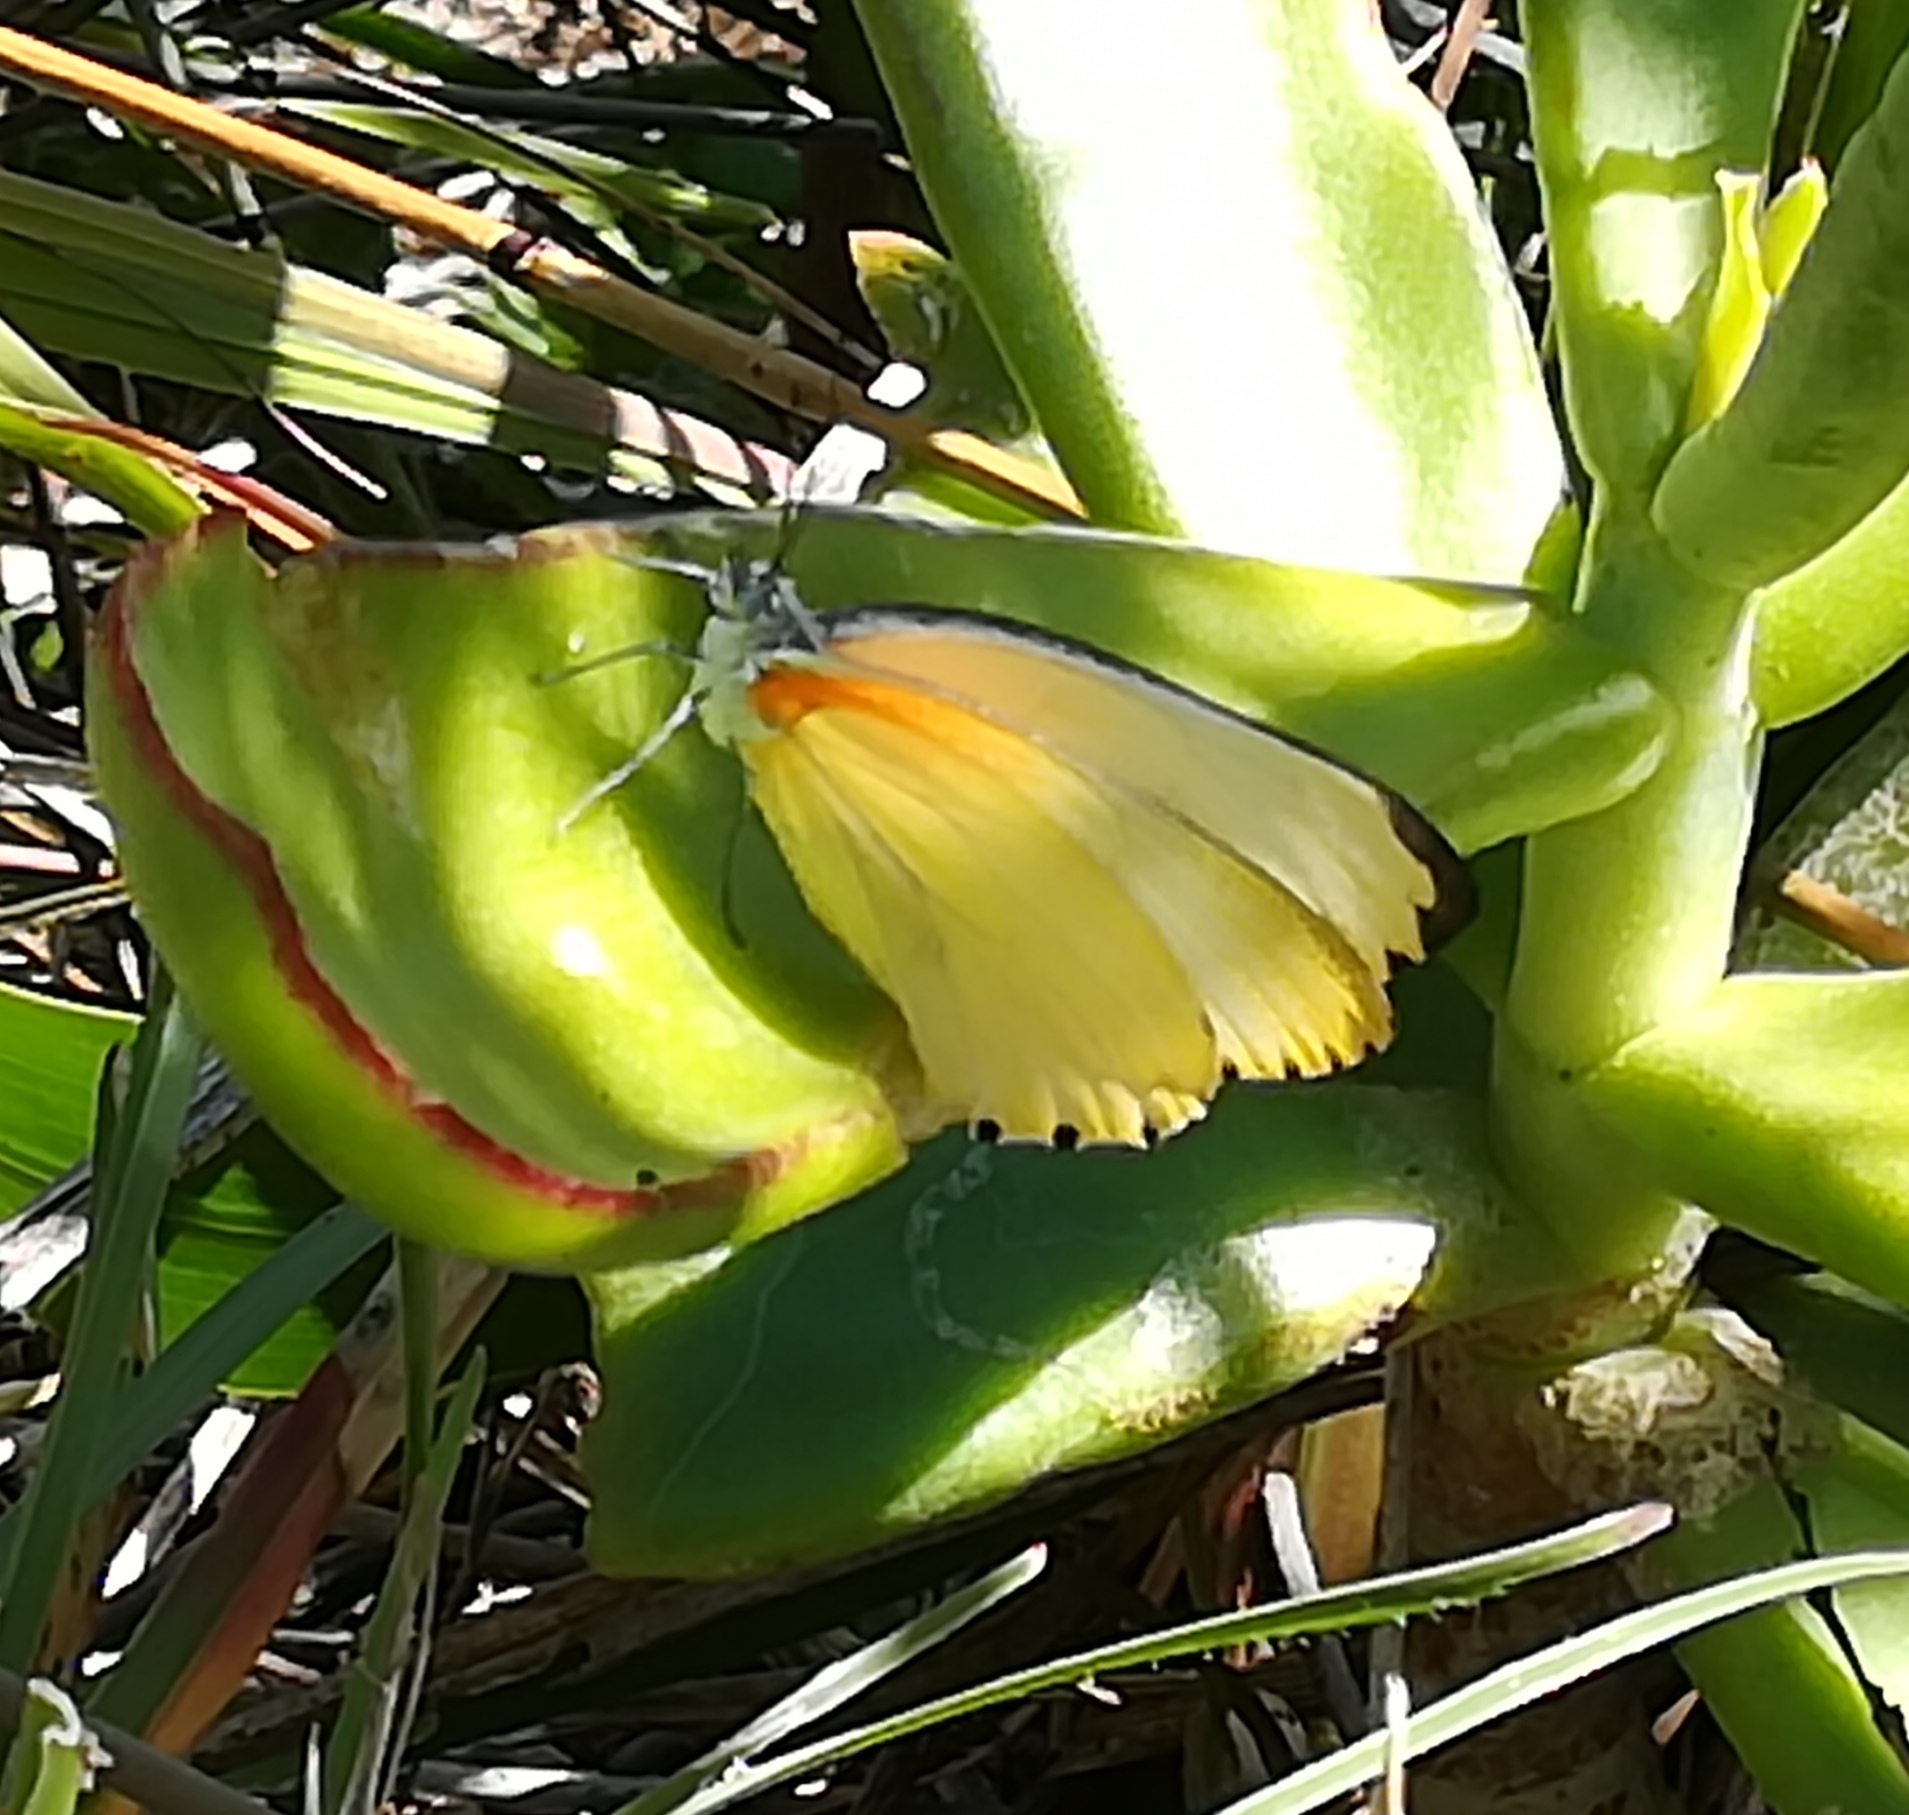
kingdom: Animalia
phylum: Arthropoda
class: Insecta
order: Lepidoptera
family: Pieridae
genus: Mylothris
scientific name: Mylothris agathina
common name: Eastern dotted border
